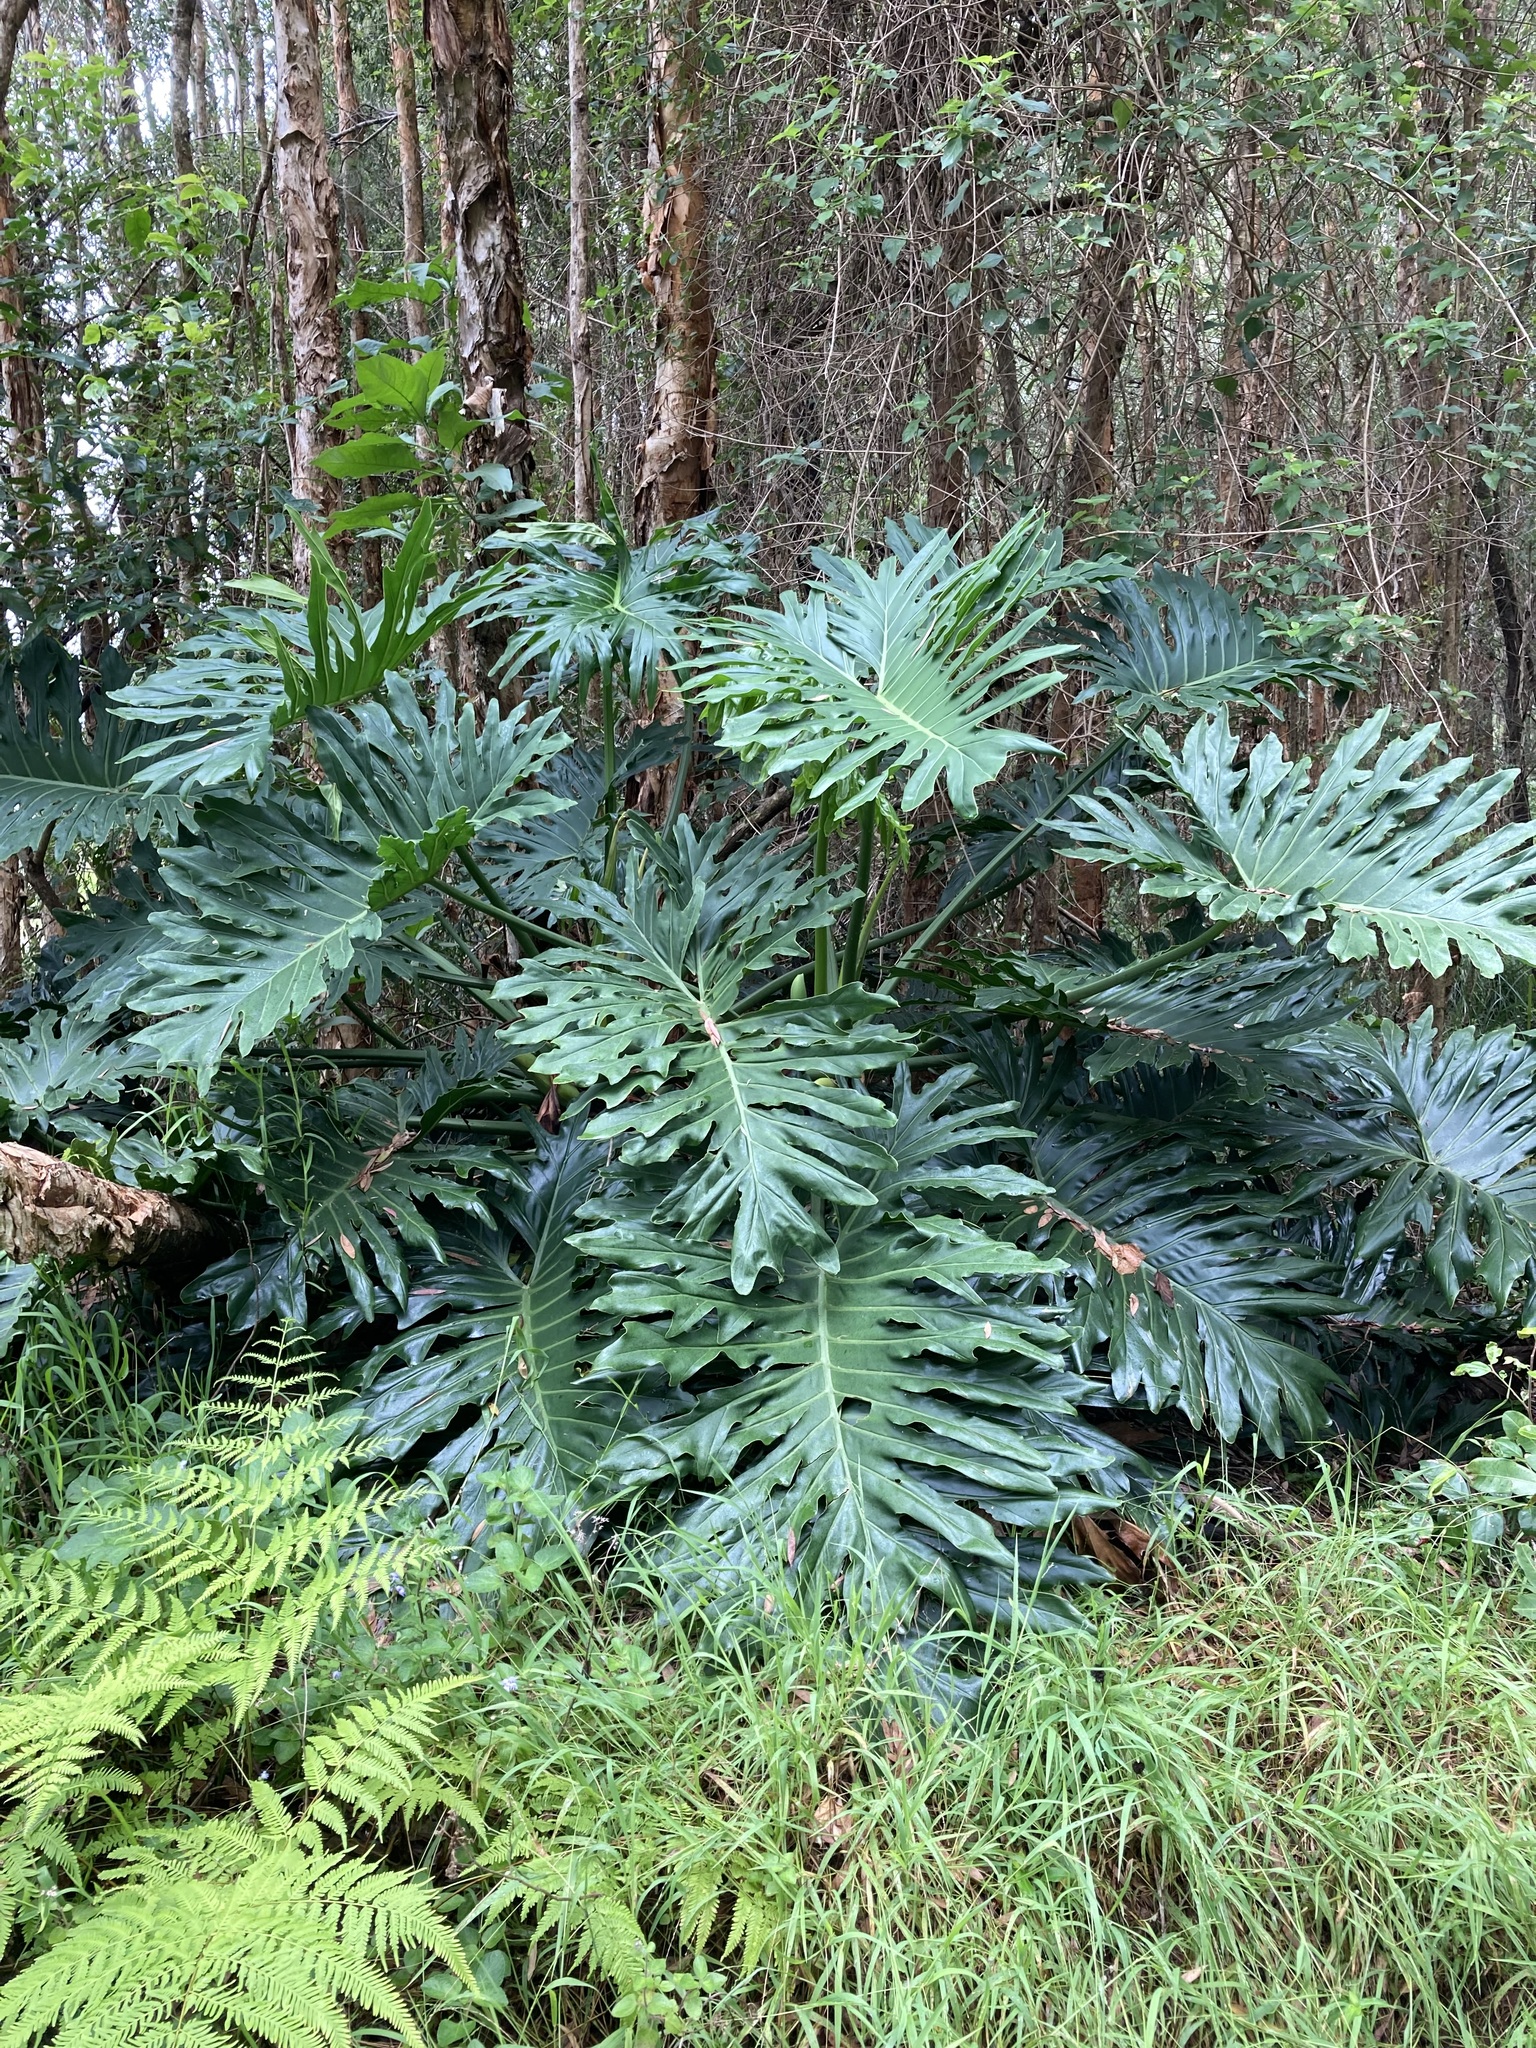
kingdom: Plantae
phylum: Tracheophyta
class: Liliopsida
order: Alismatales
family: Araceae
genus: Thaumatophyllum
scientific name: Thaumatophyllum bipinnatifidum
